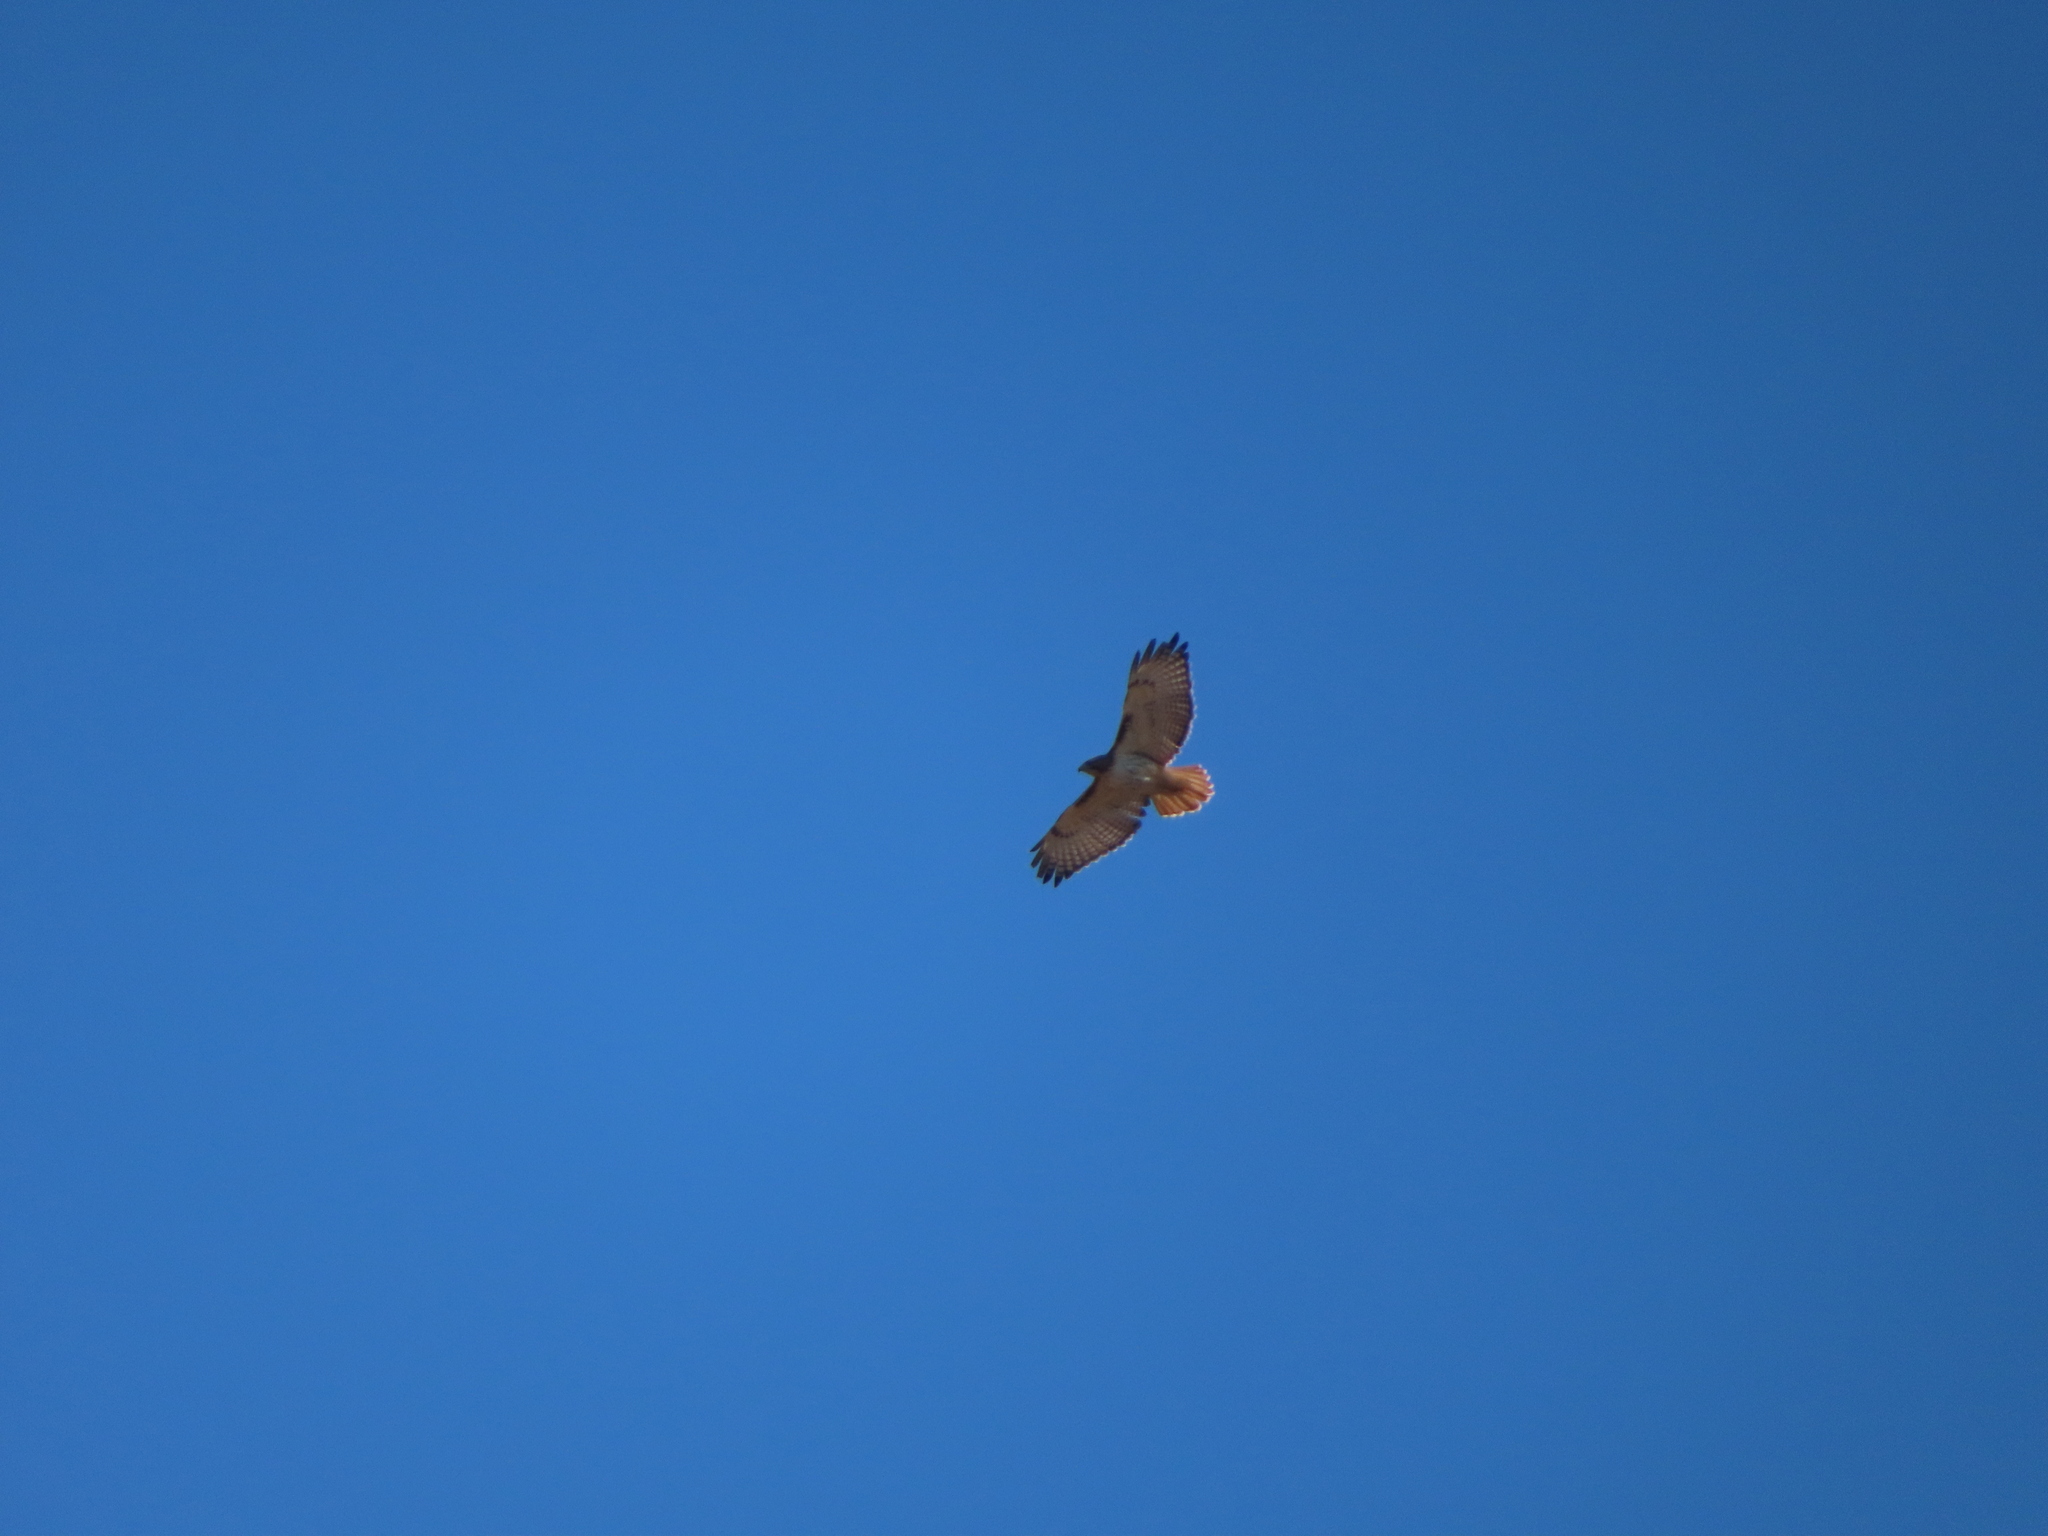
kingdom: Animalia
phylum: Chordata
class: Aves
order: Accipitriformes
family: Accipitridae
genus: Buteo
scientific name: Buteo jamaicensis
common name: Red-tailed hawk
